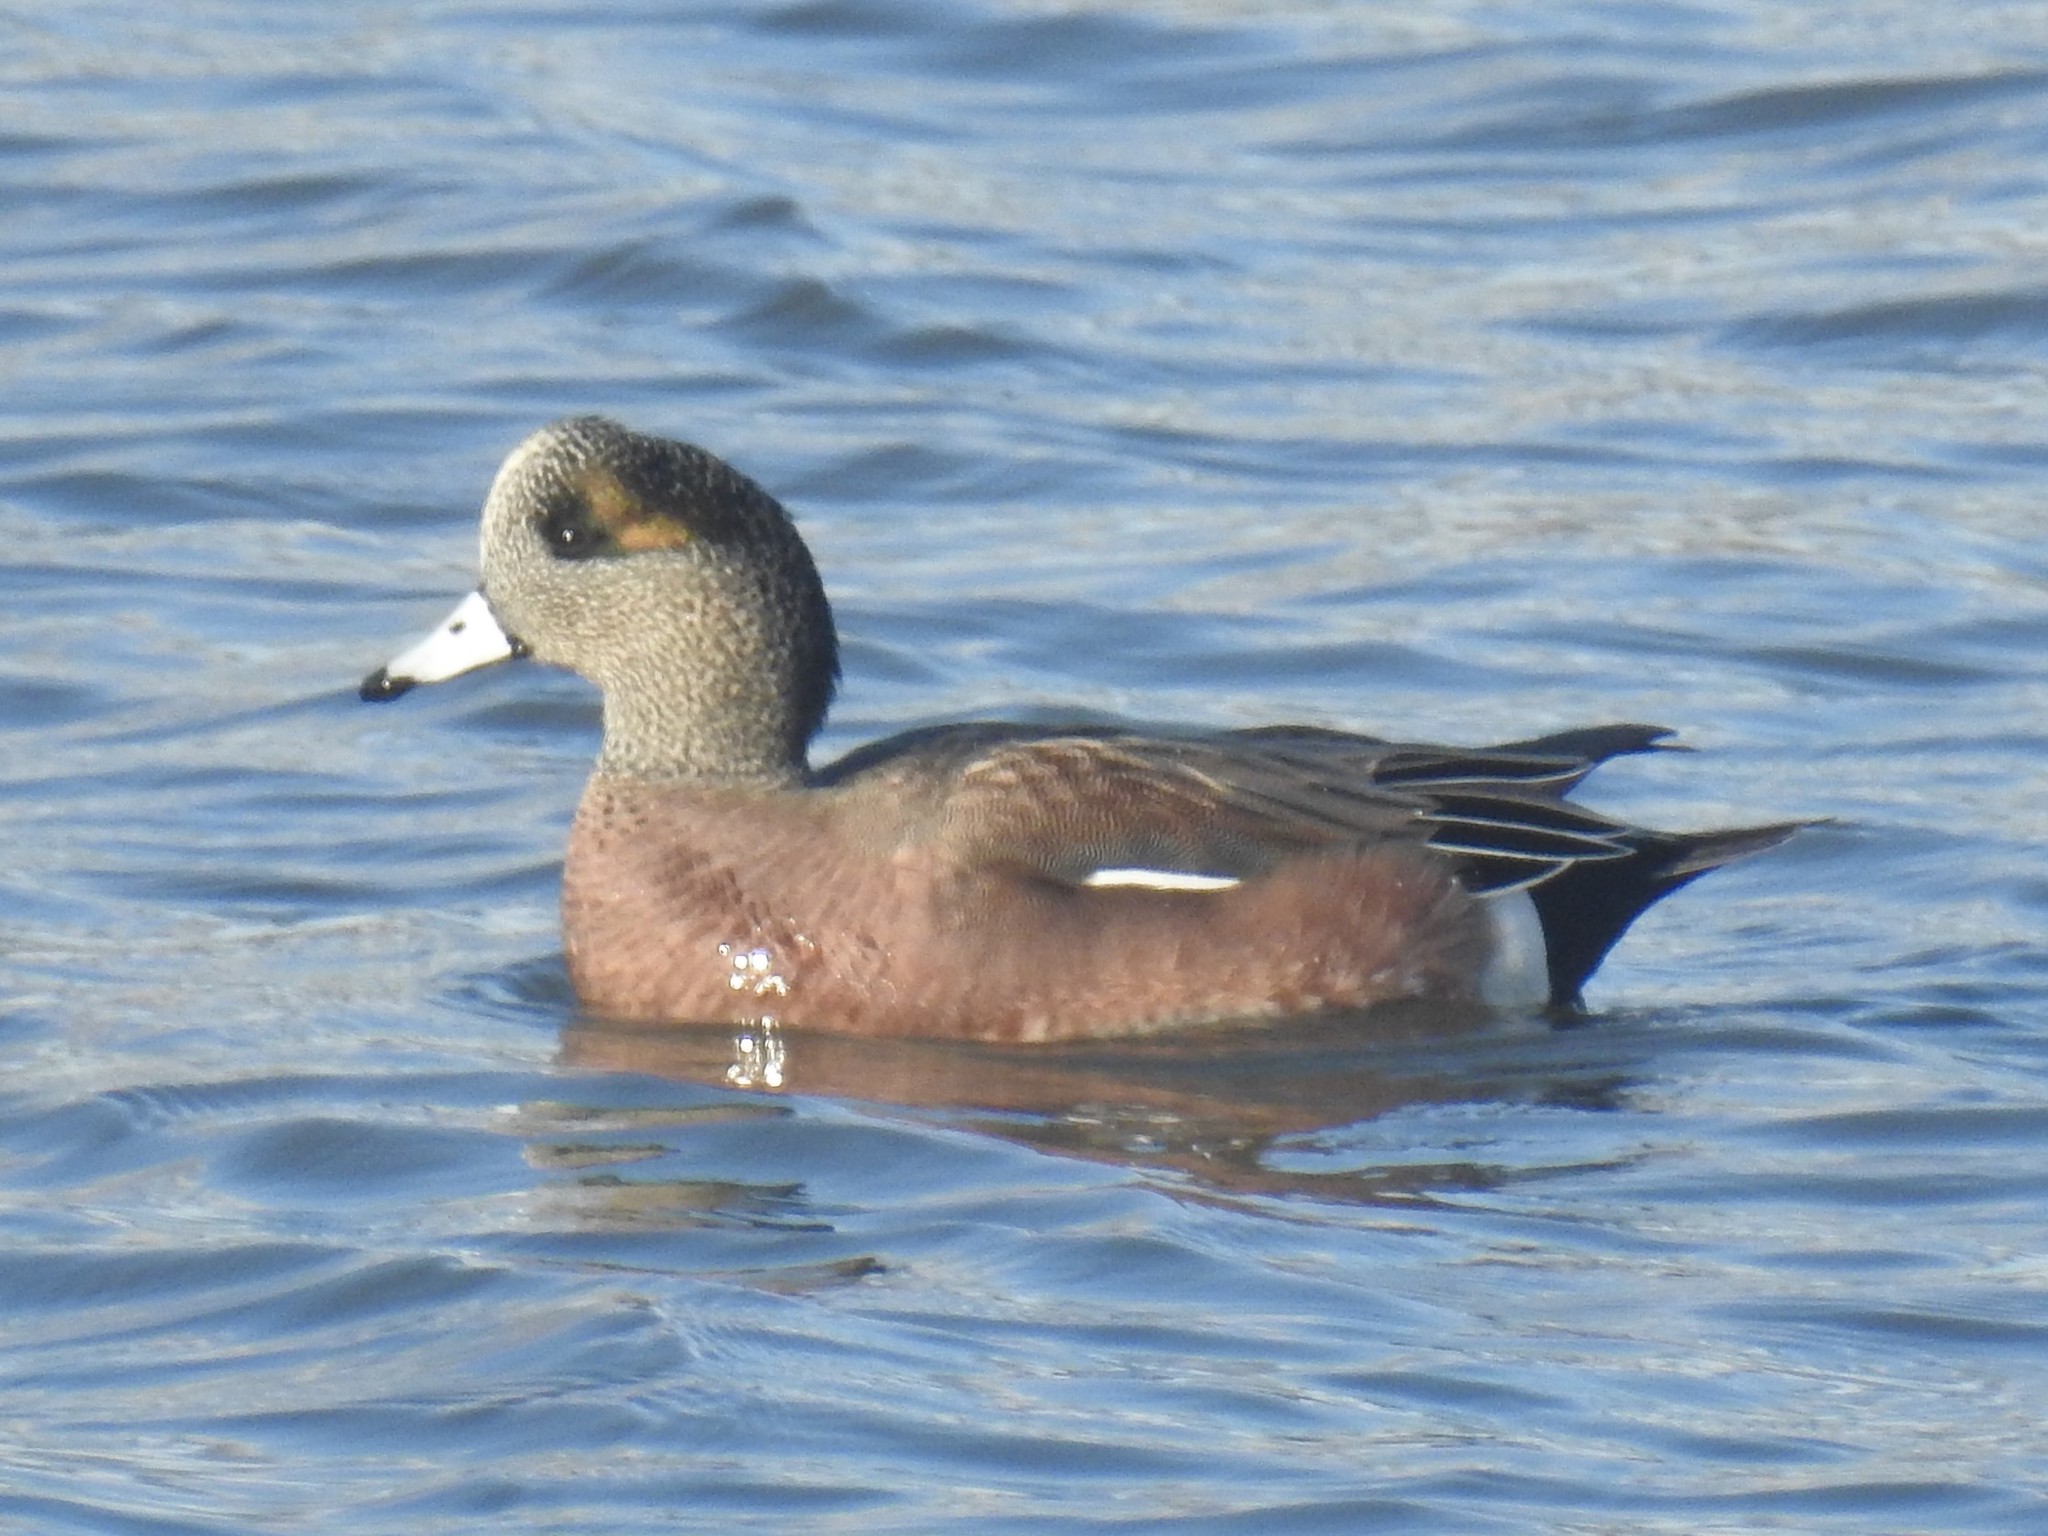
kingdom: Animalia
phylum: Chordata
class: Aves
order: Anseriformes
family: Anatidae
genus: Mareca
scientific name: Mareca americana
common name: American wigeon
